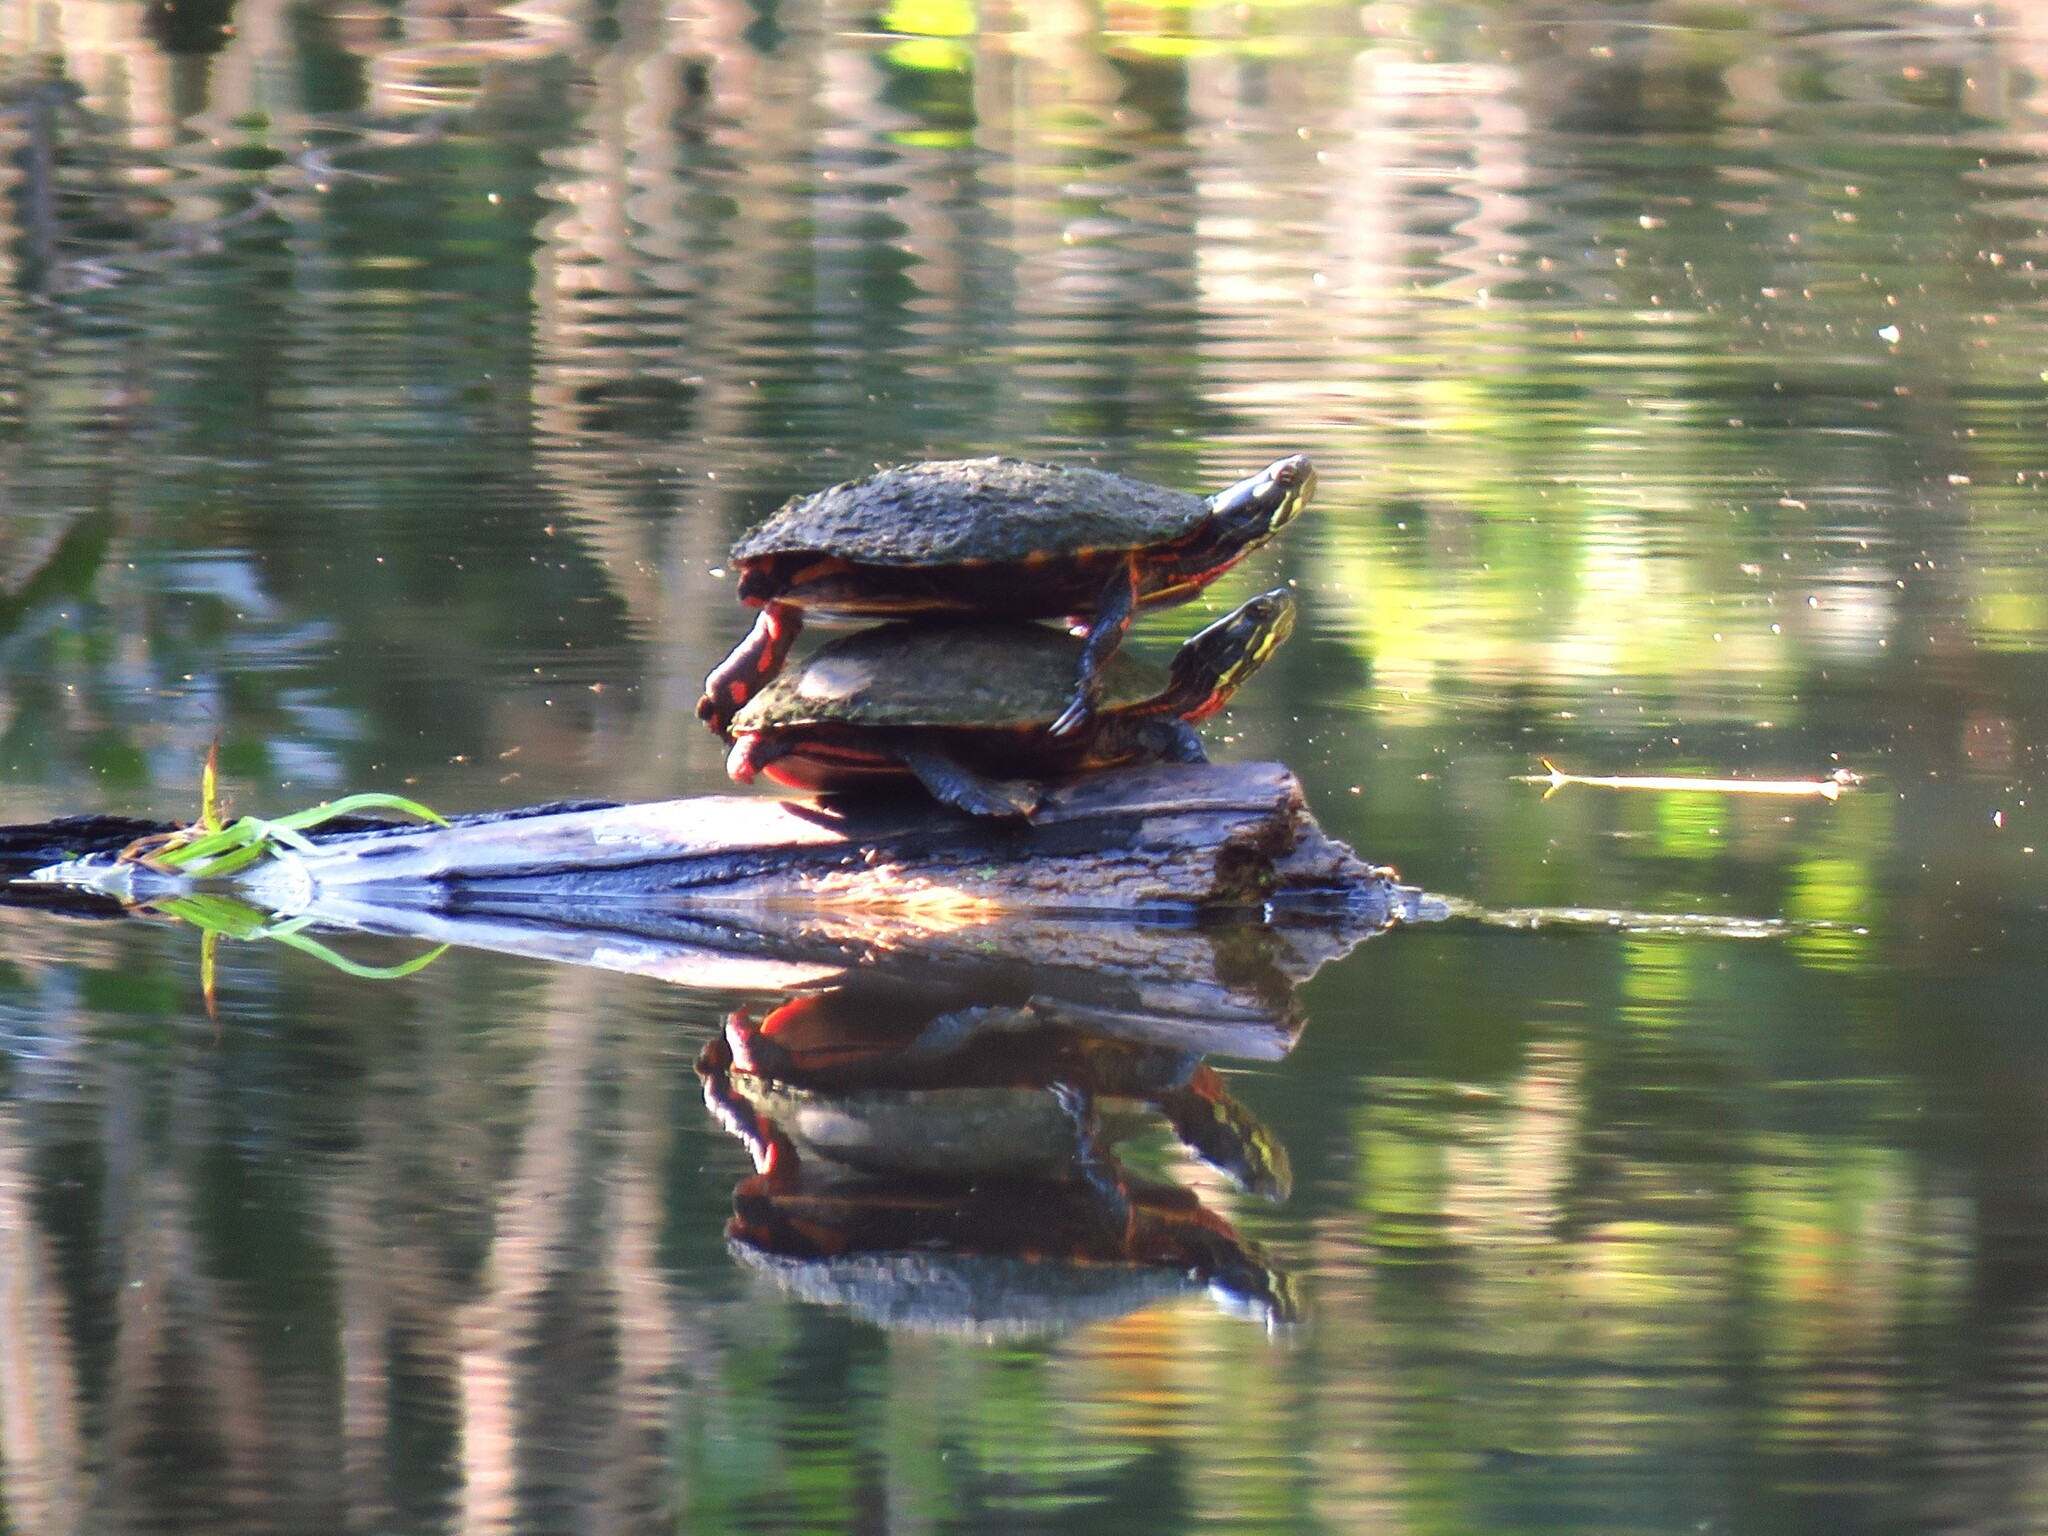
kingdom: Animalia
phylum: Chordata
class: Testudines
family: Emydidae
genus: Chrysemys
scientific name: Chrysemys picta
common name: Painted turtle
